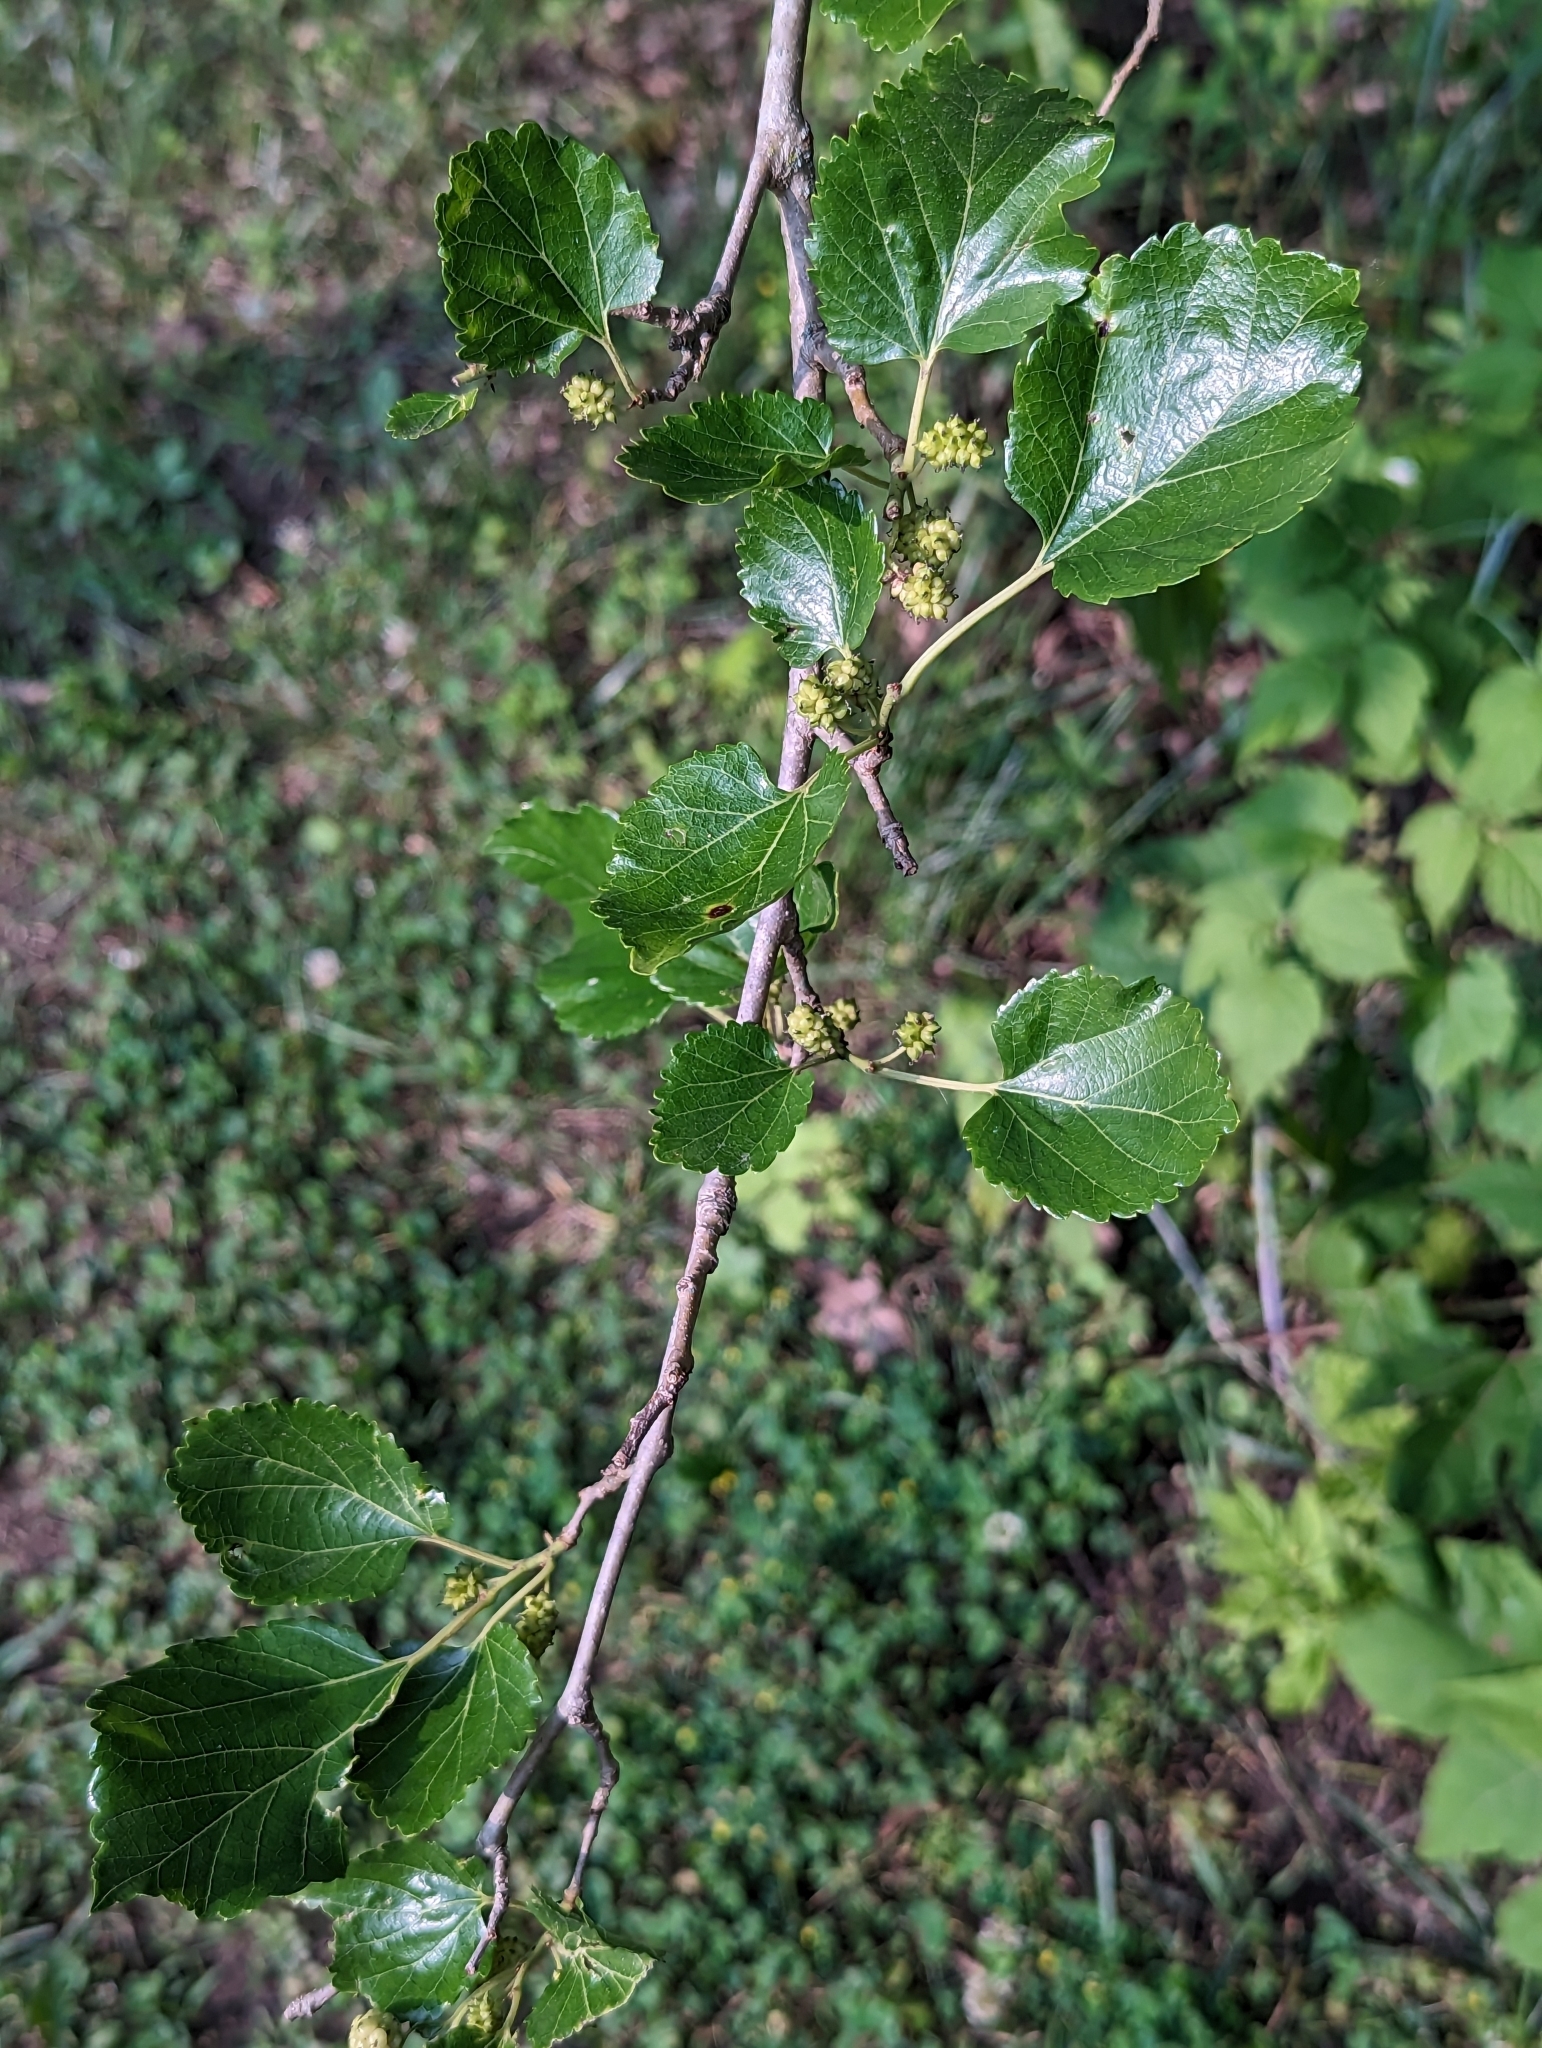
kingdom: Plantae
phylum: Tracheophyta
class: Magnoliopsida
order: Rosales
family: Moraceae
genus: Morus
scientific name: Morus alba
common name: White mulberry
